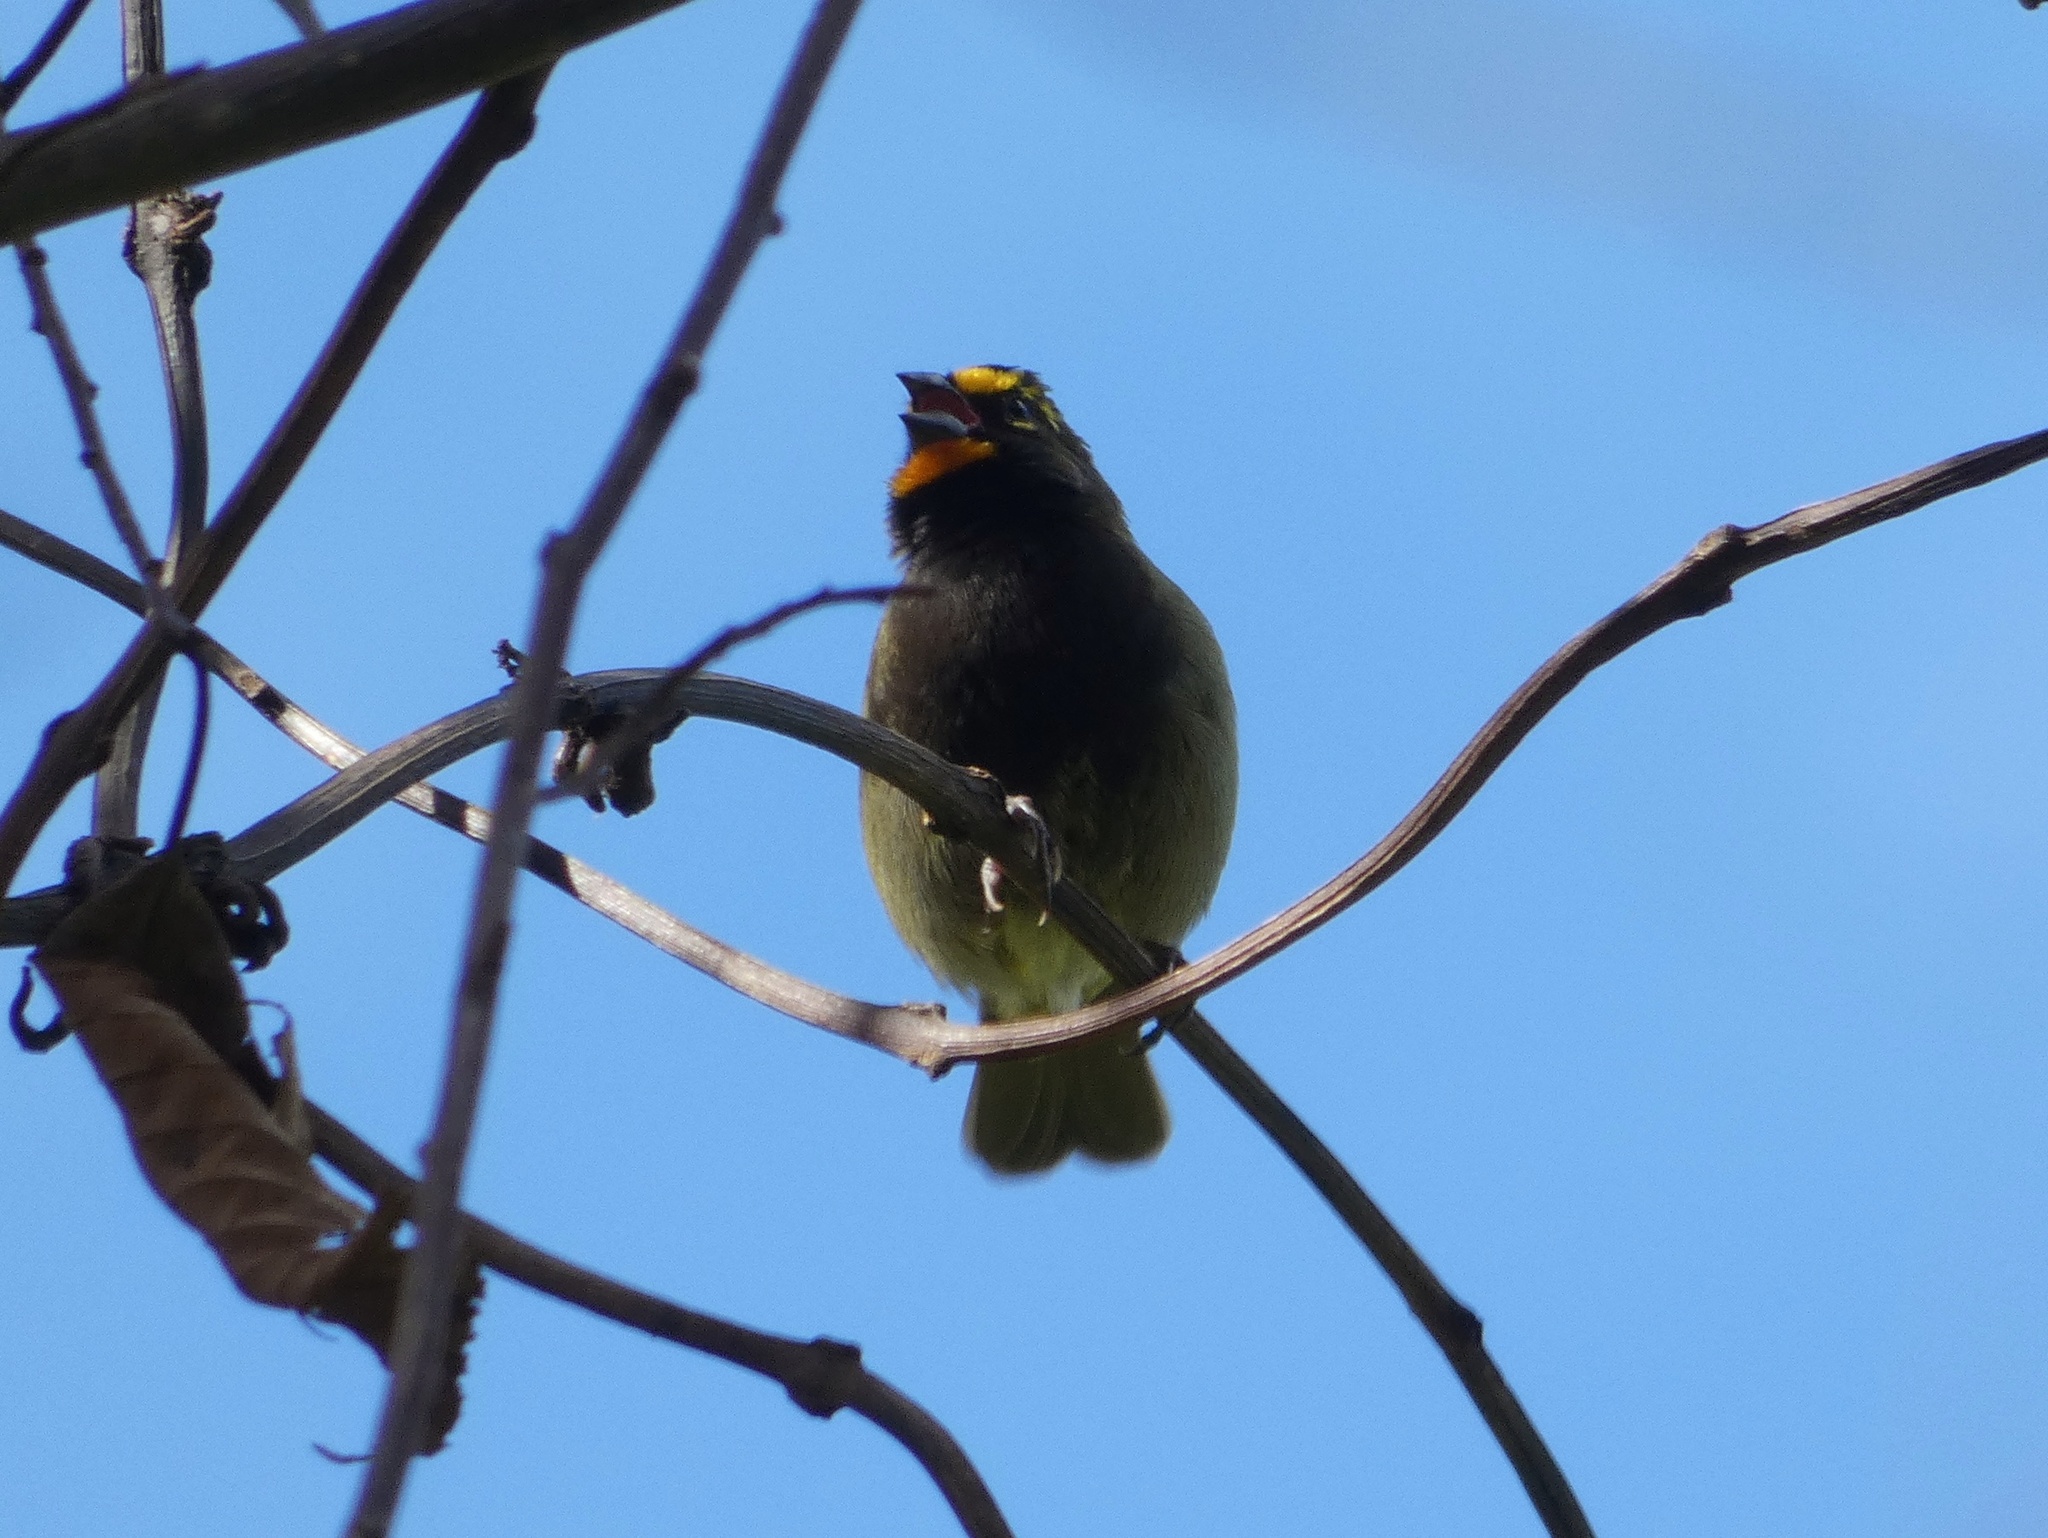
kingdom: Animalia
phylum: Chordata
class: Aves
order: Passeriformes
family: Thraupidae
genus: Tiaris
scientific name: Tiaris olivaceus
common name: Yellow-faced grassquit
